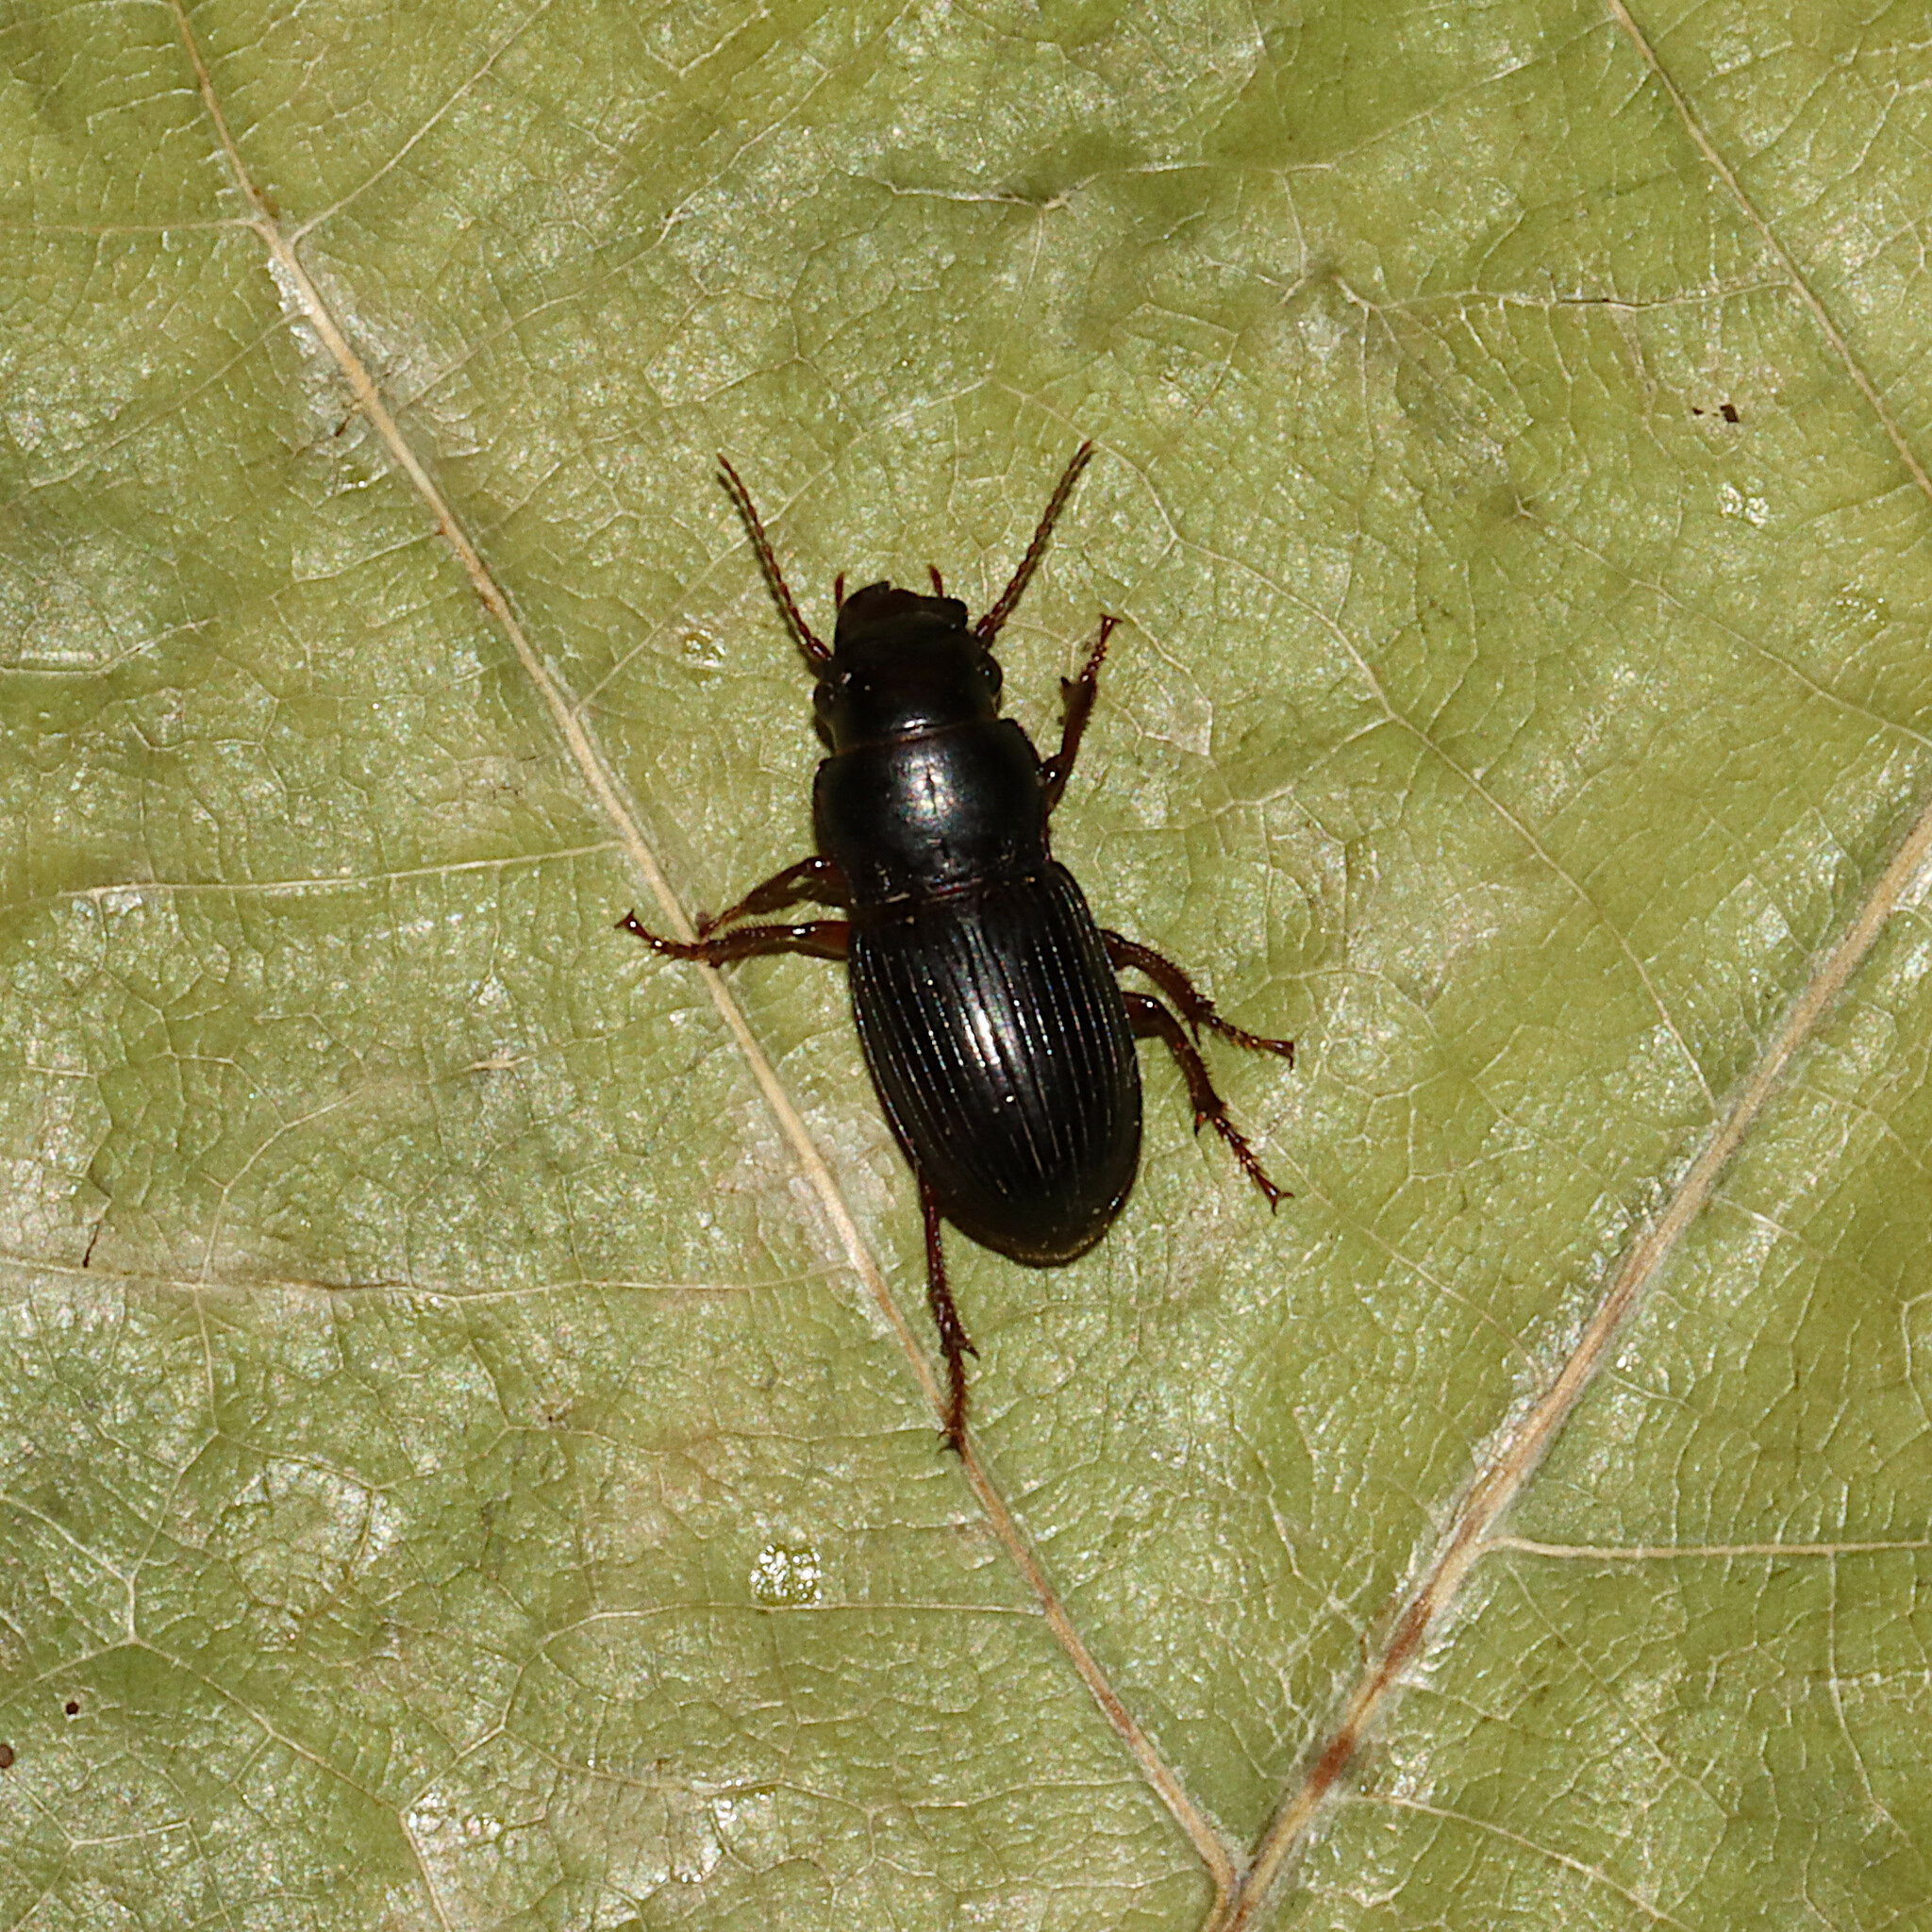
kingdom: Animalia
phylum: Arthropoda
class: Insecta
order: Coleoptera
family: Carabidae
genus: Cratacanthus
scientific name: Cratacanthus dubius
